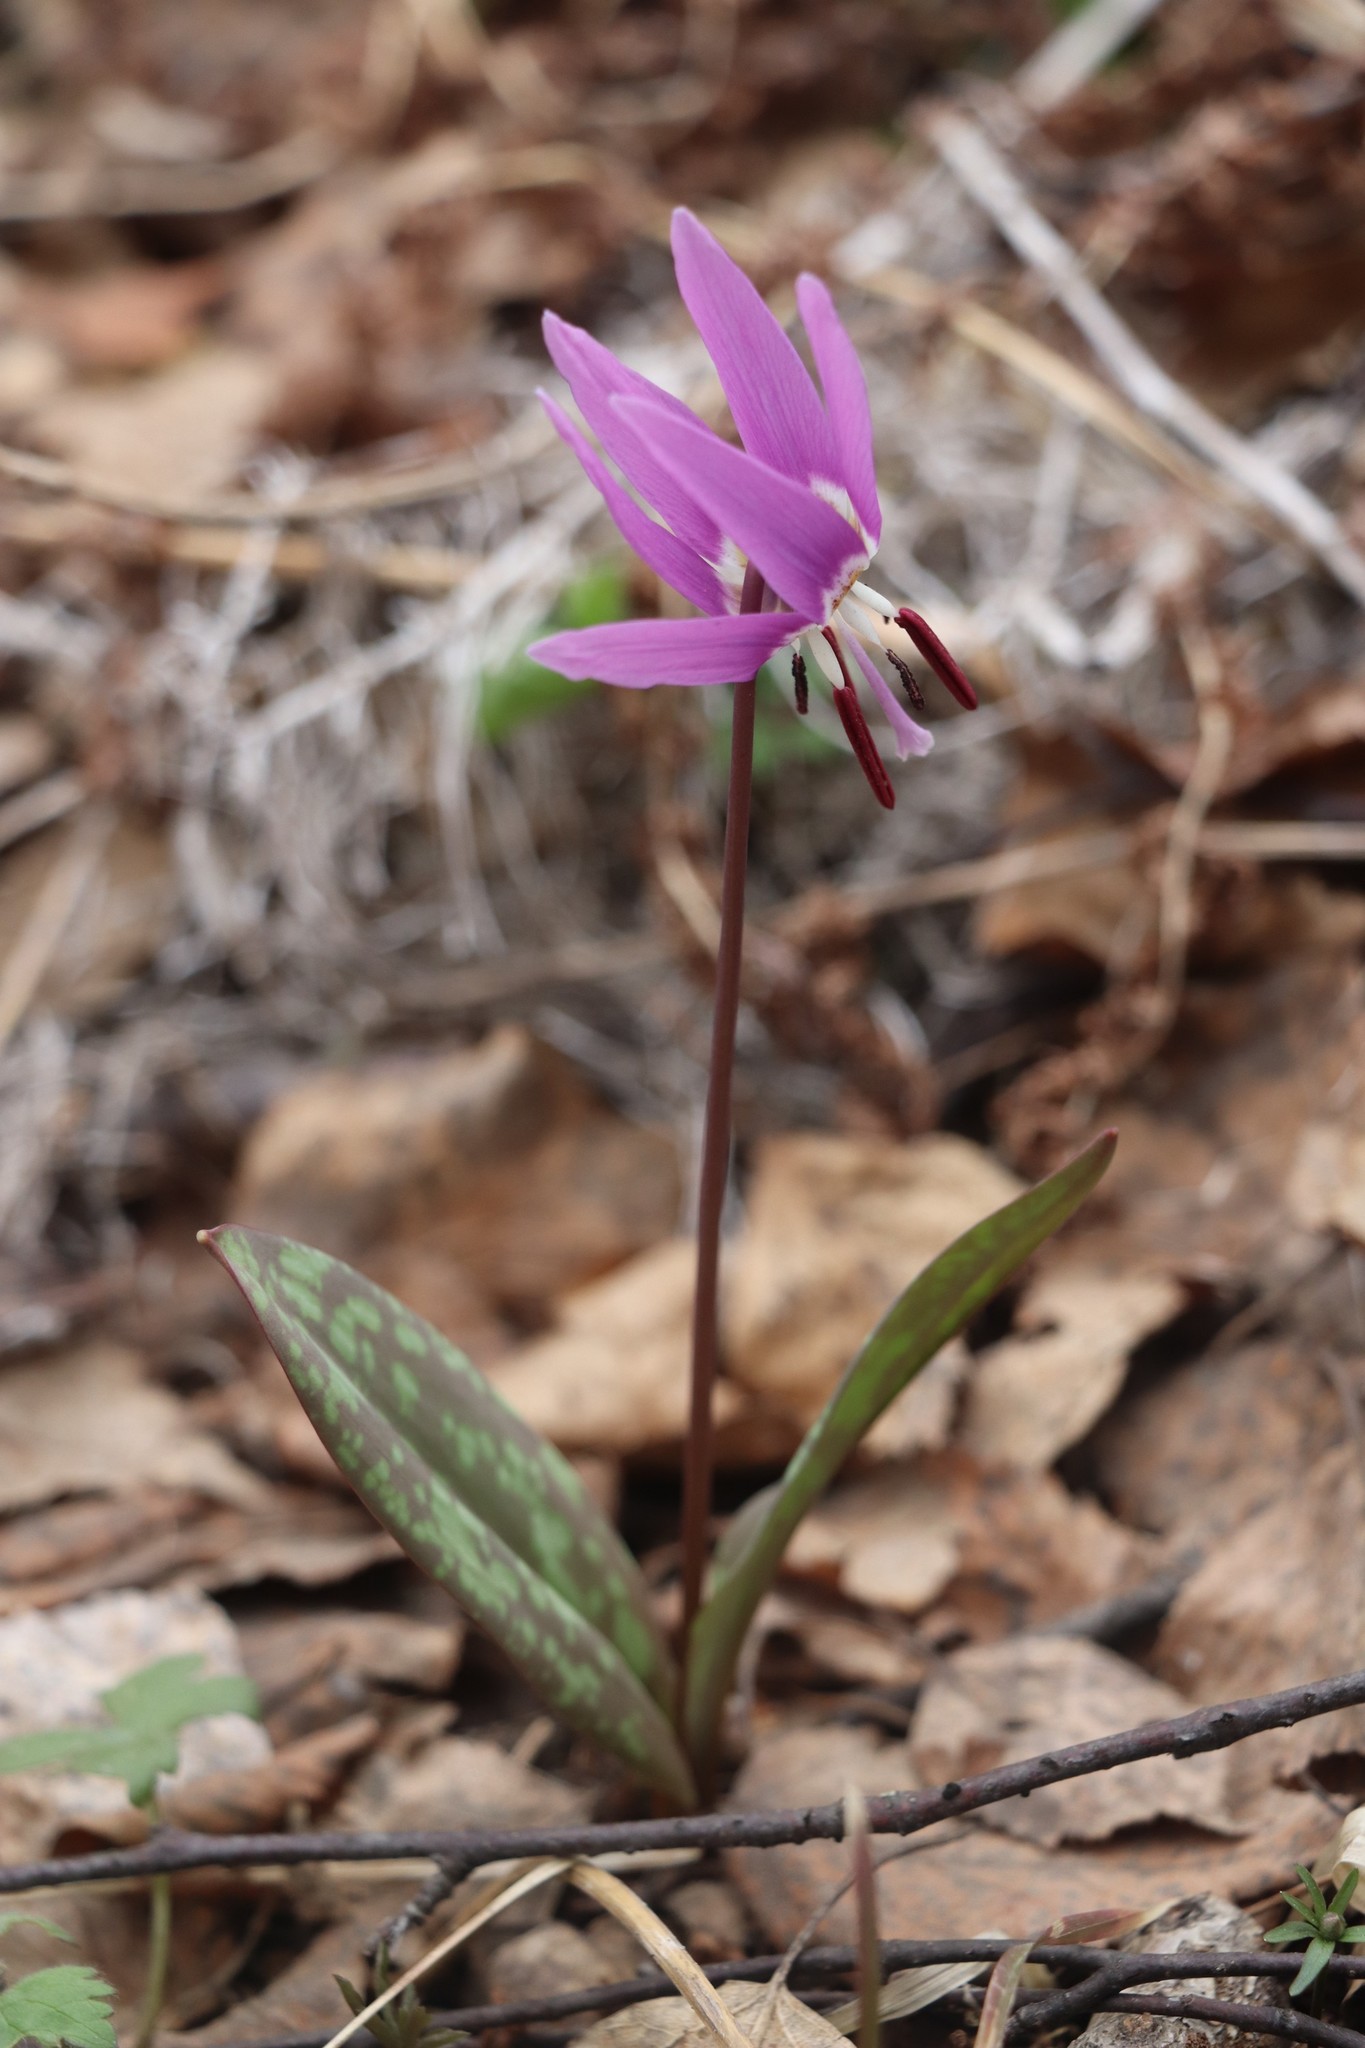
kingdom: Plantae
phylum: Tracheophyta
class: Liliopsida
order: Liliales
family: Liliaceae
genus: Erythronium
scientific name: Erythronium sulevii
